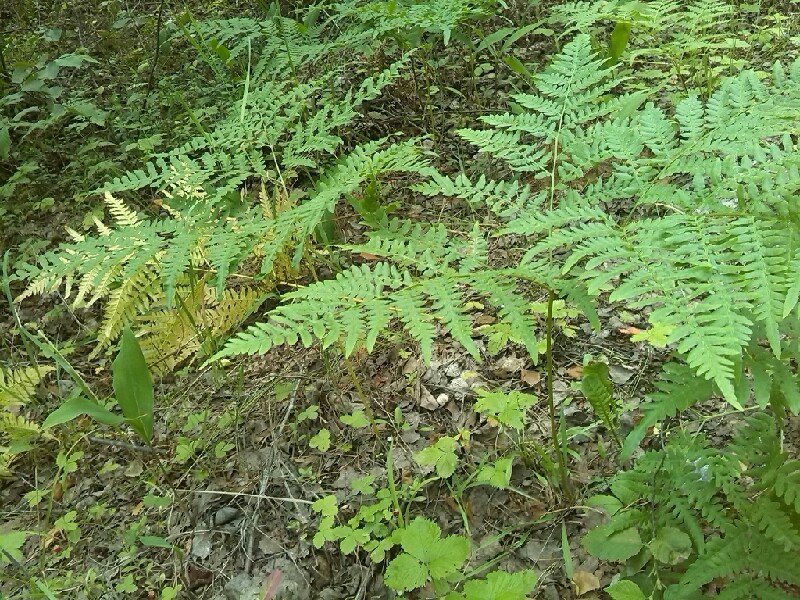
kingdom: Plantae
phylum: Tracheophyta
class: Polypodiopsida
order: Polypodiales
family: Dennstaedtiaceae
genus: Pteridium
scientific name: Pteridium aquilinum
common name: Bracken
